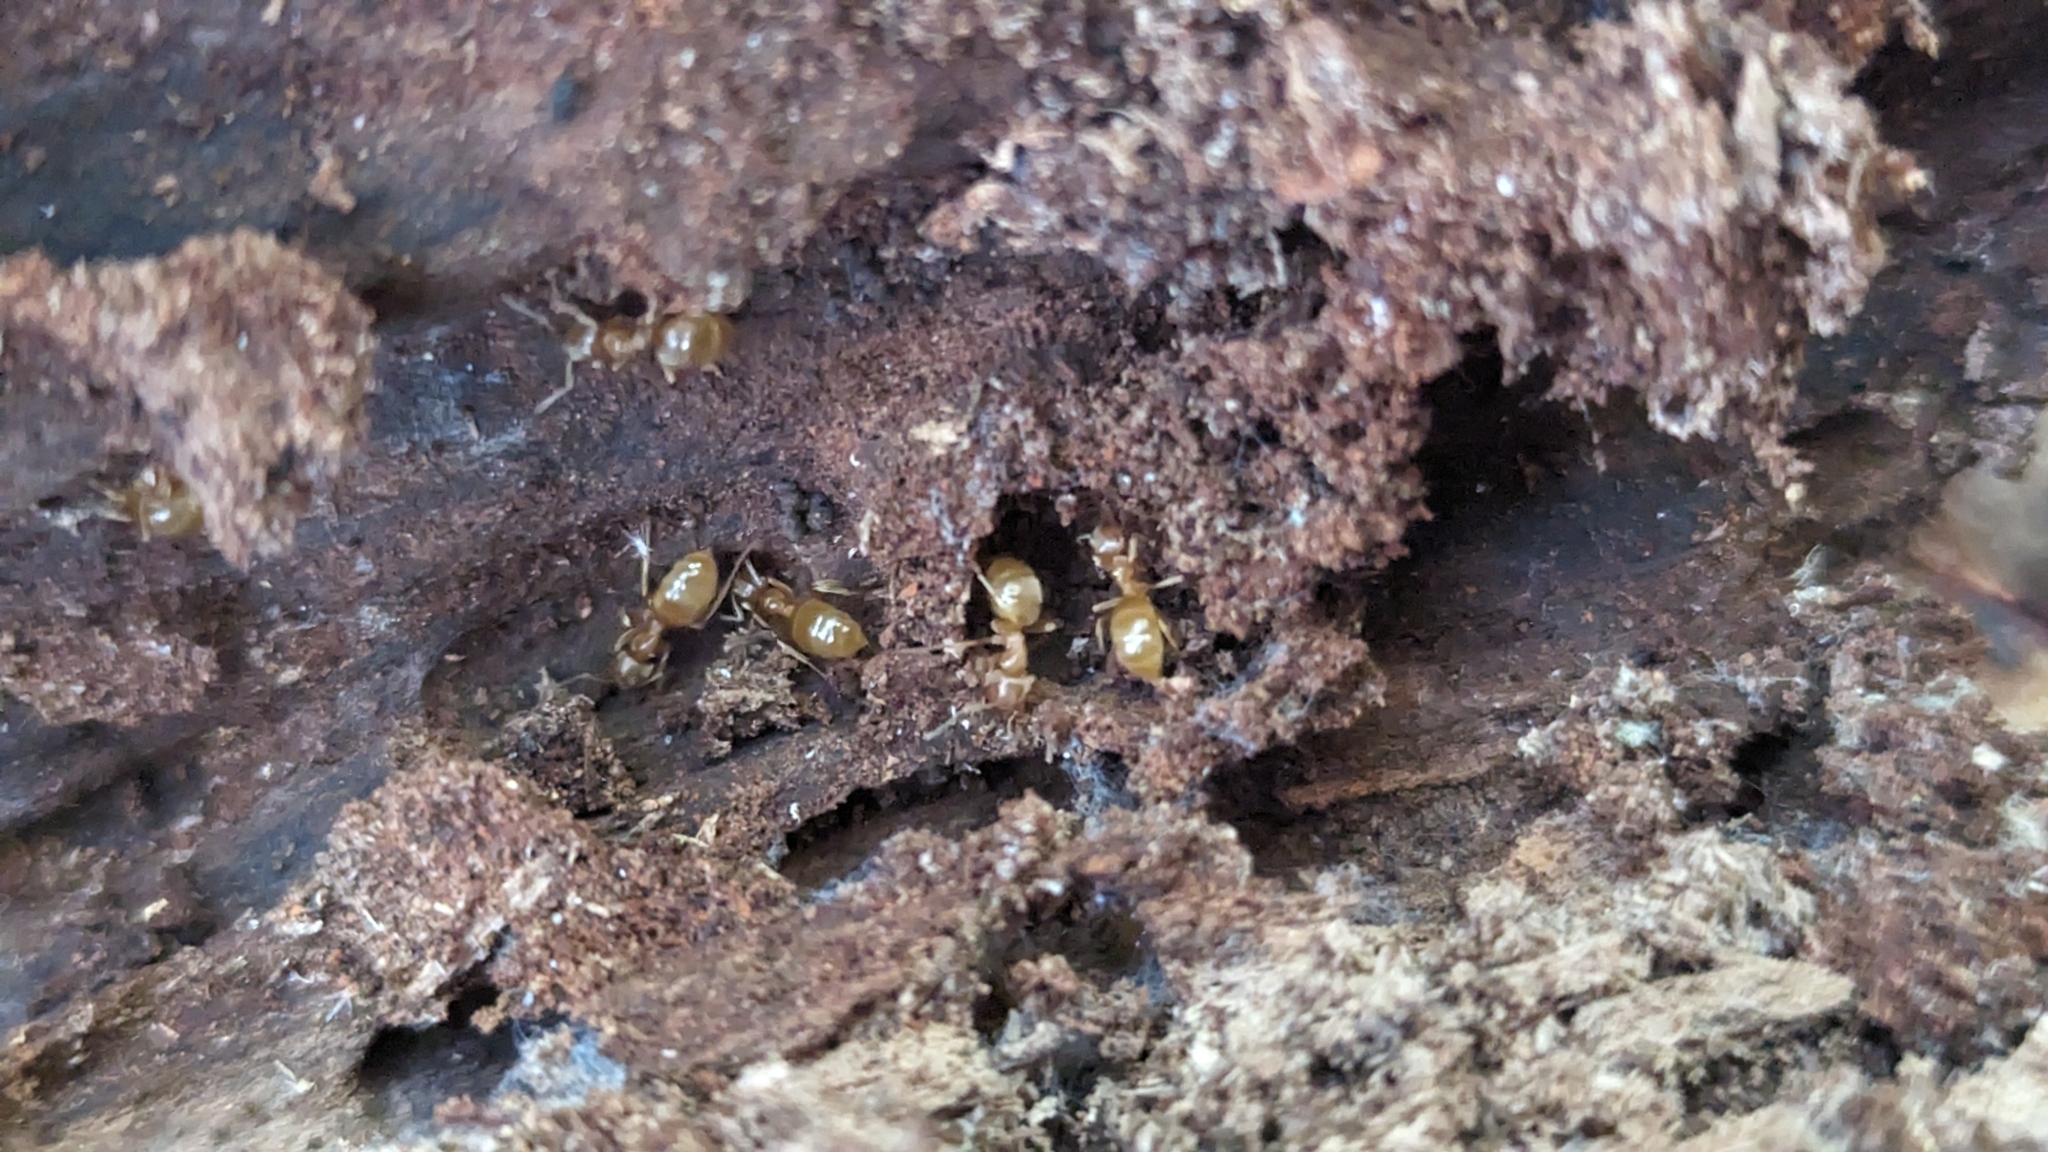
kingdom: Animalia
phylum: Arthropoda
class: Insecta
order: Hymenoptera
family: Formicidae
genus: Lasius
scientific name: Lasius aphidicola
